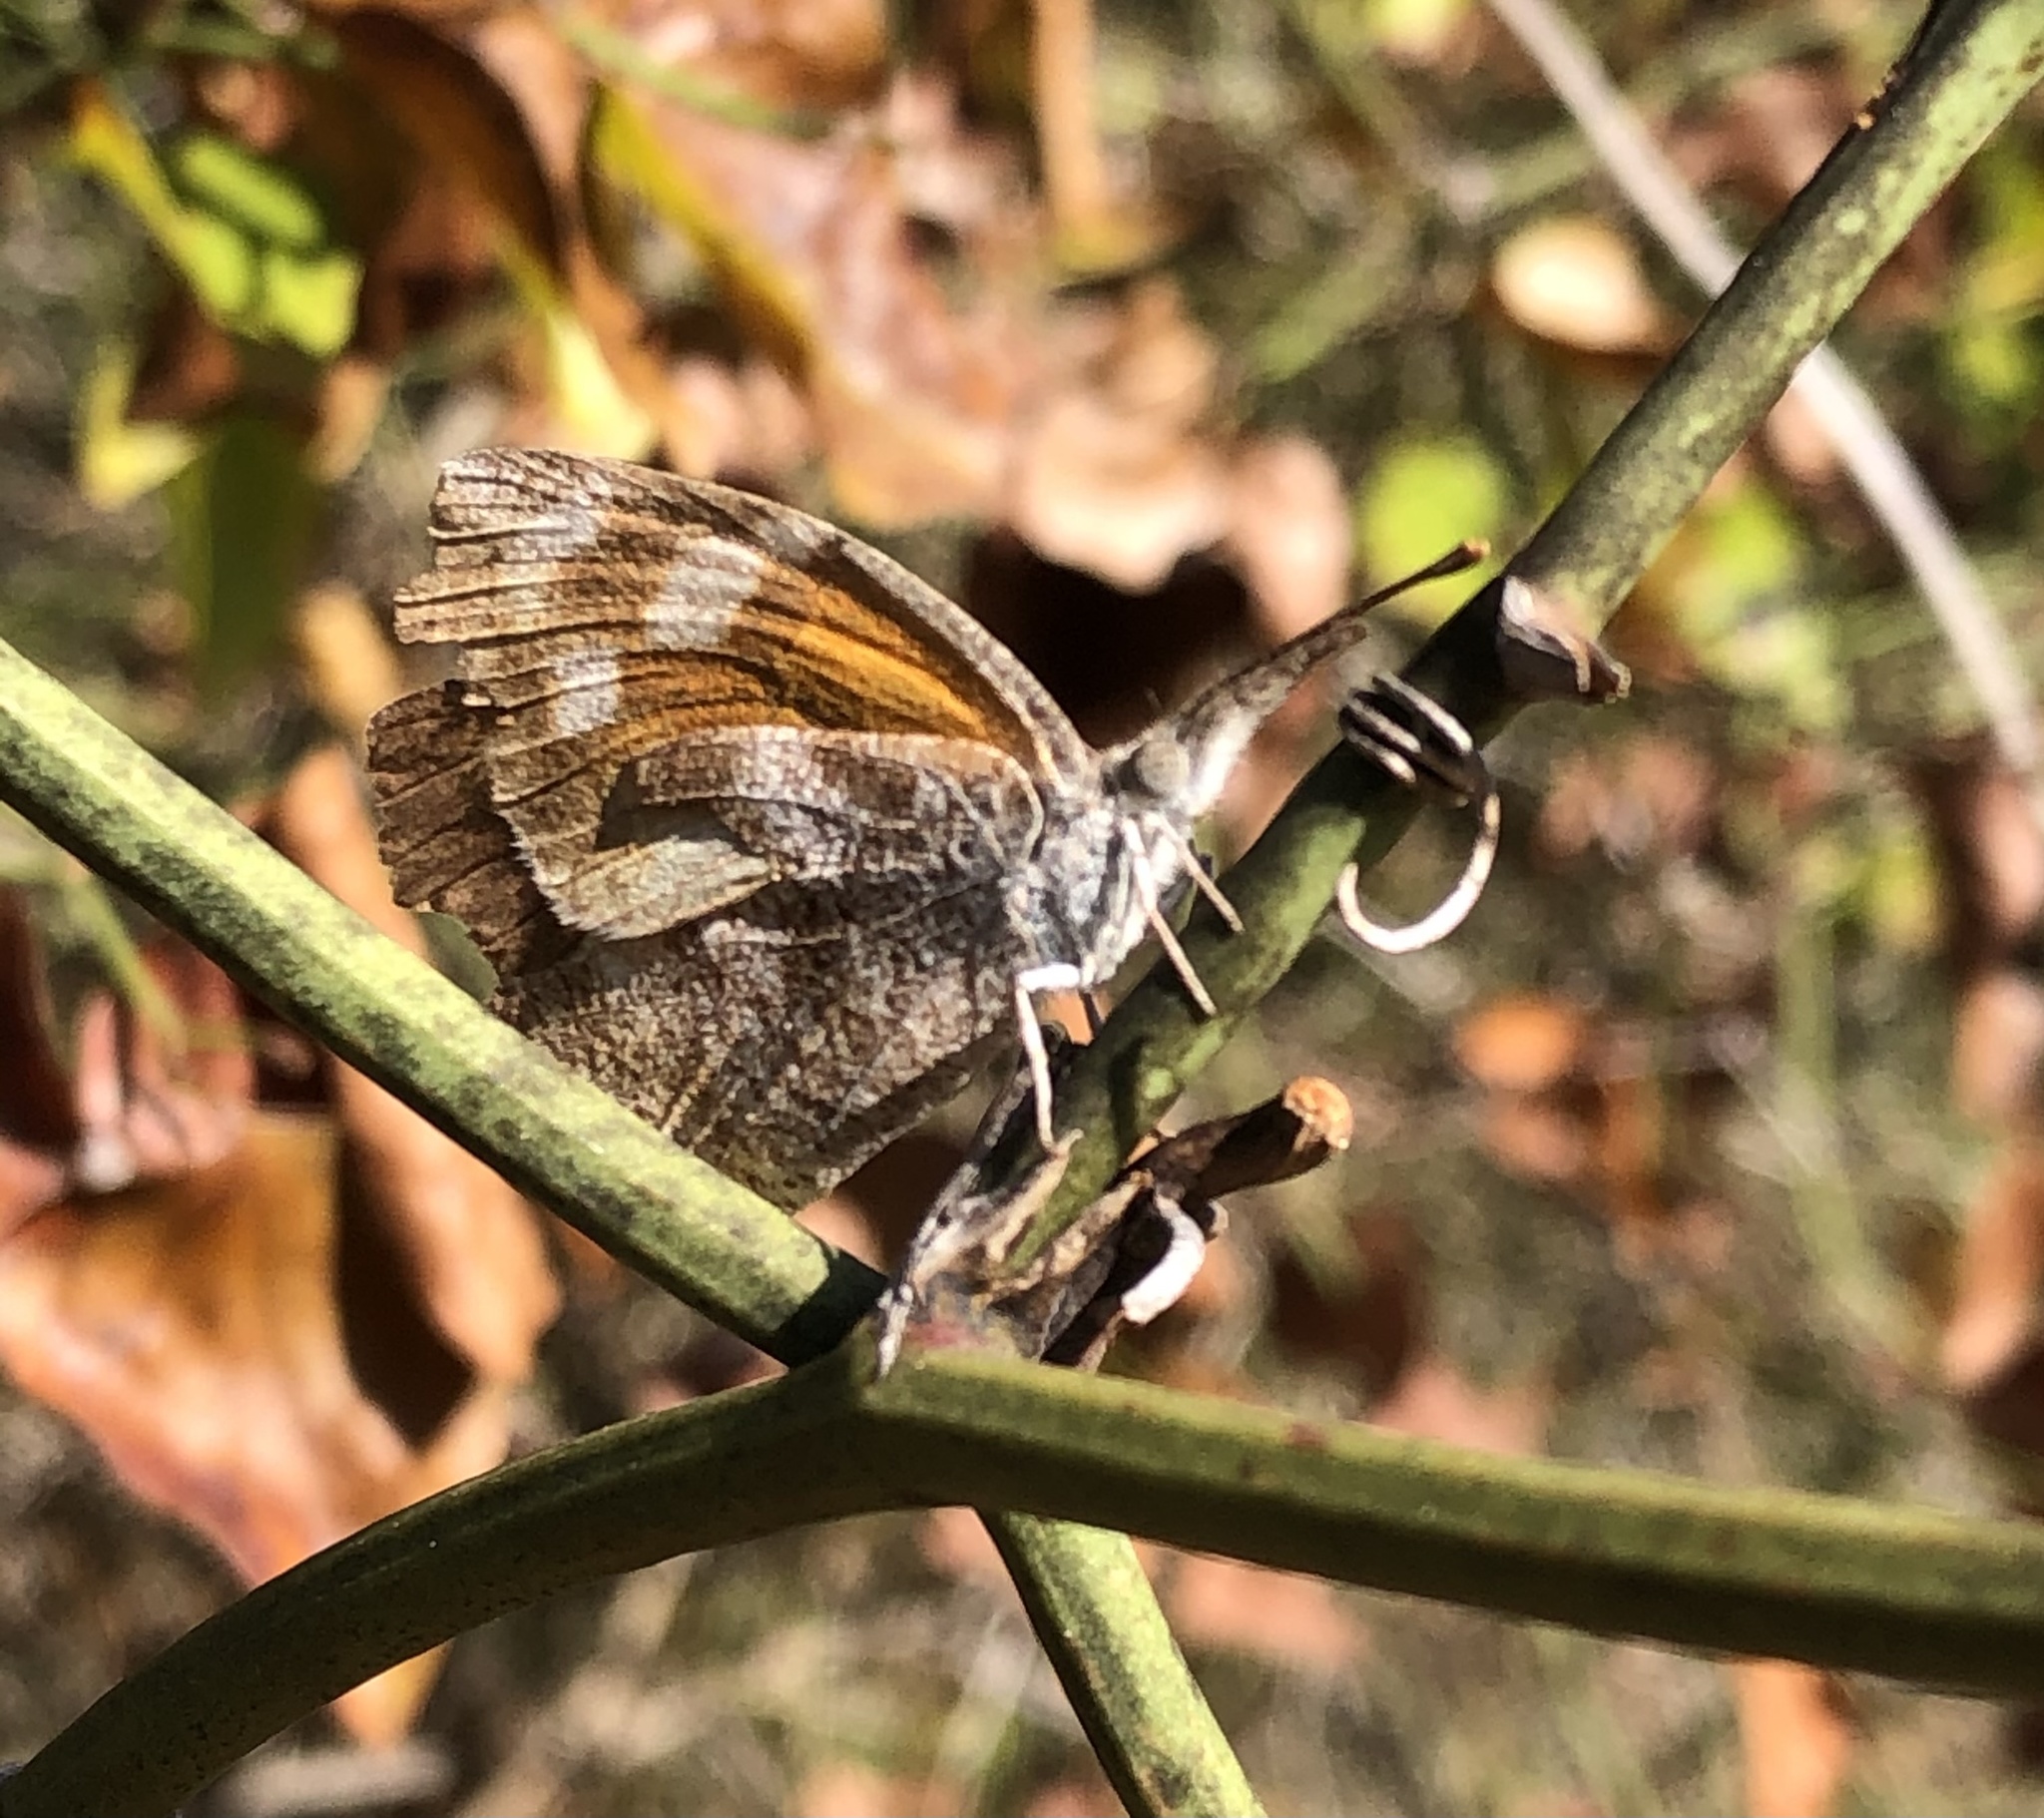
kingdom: Animalia
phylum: Arthropoda
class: Insecta
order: Lepidoptera
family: Nymphalidae
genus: Libytheana
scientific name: Libytheana carinenta
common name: American snout
